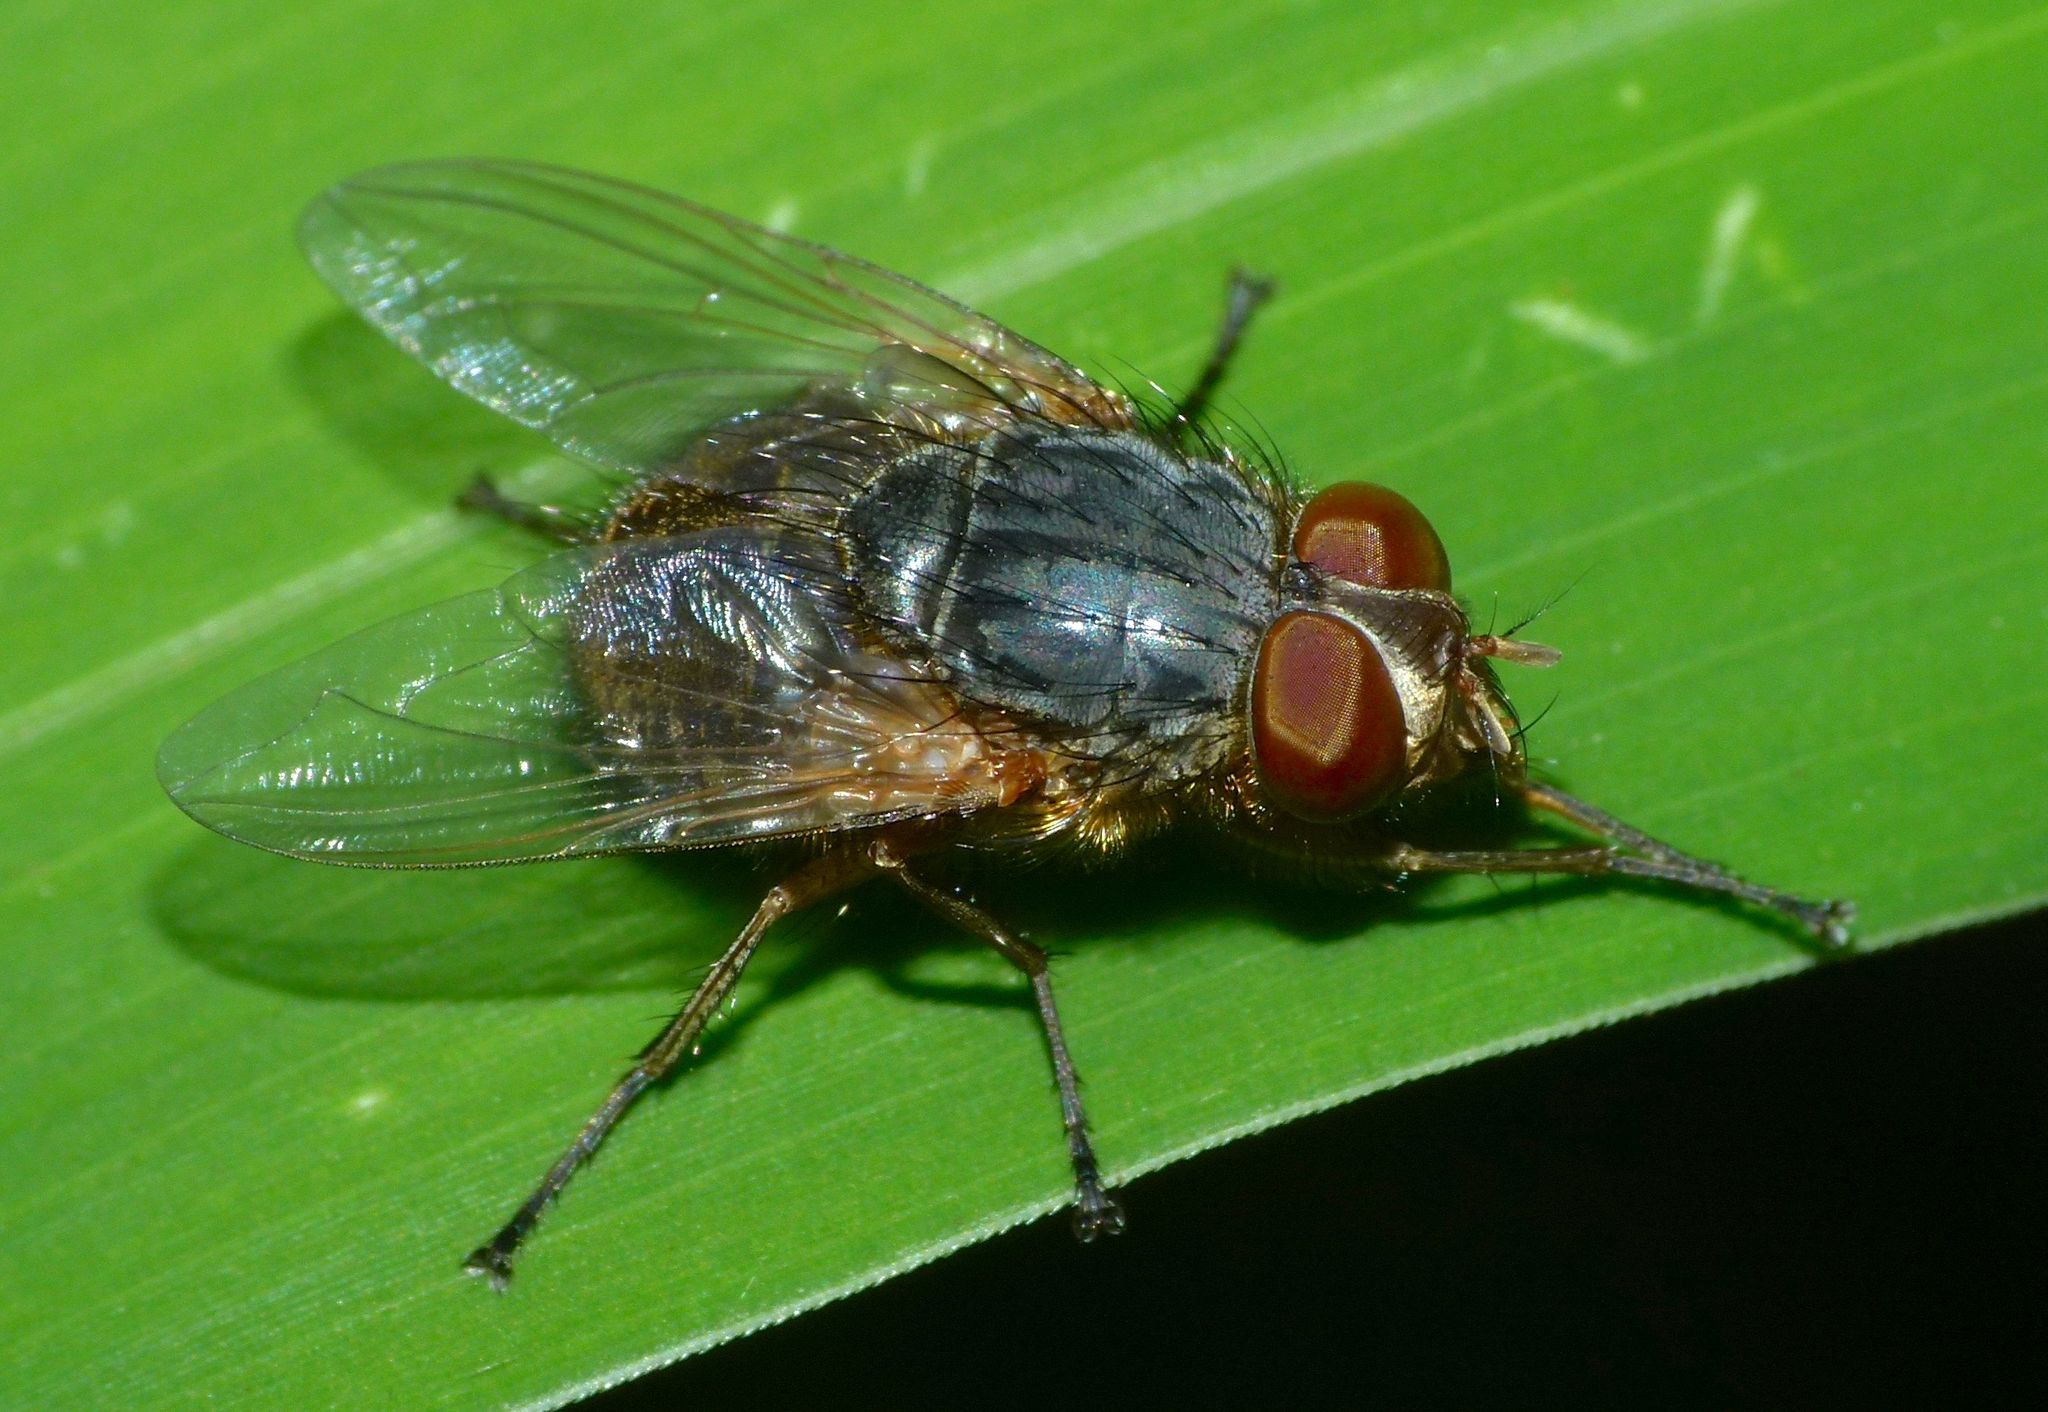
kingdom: Animalia
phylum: Arthropoda
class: Insecta
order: Diptera
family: Calliphoridae
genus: Calliphora
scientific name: Calliphora hilli
